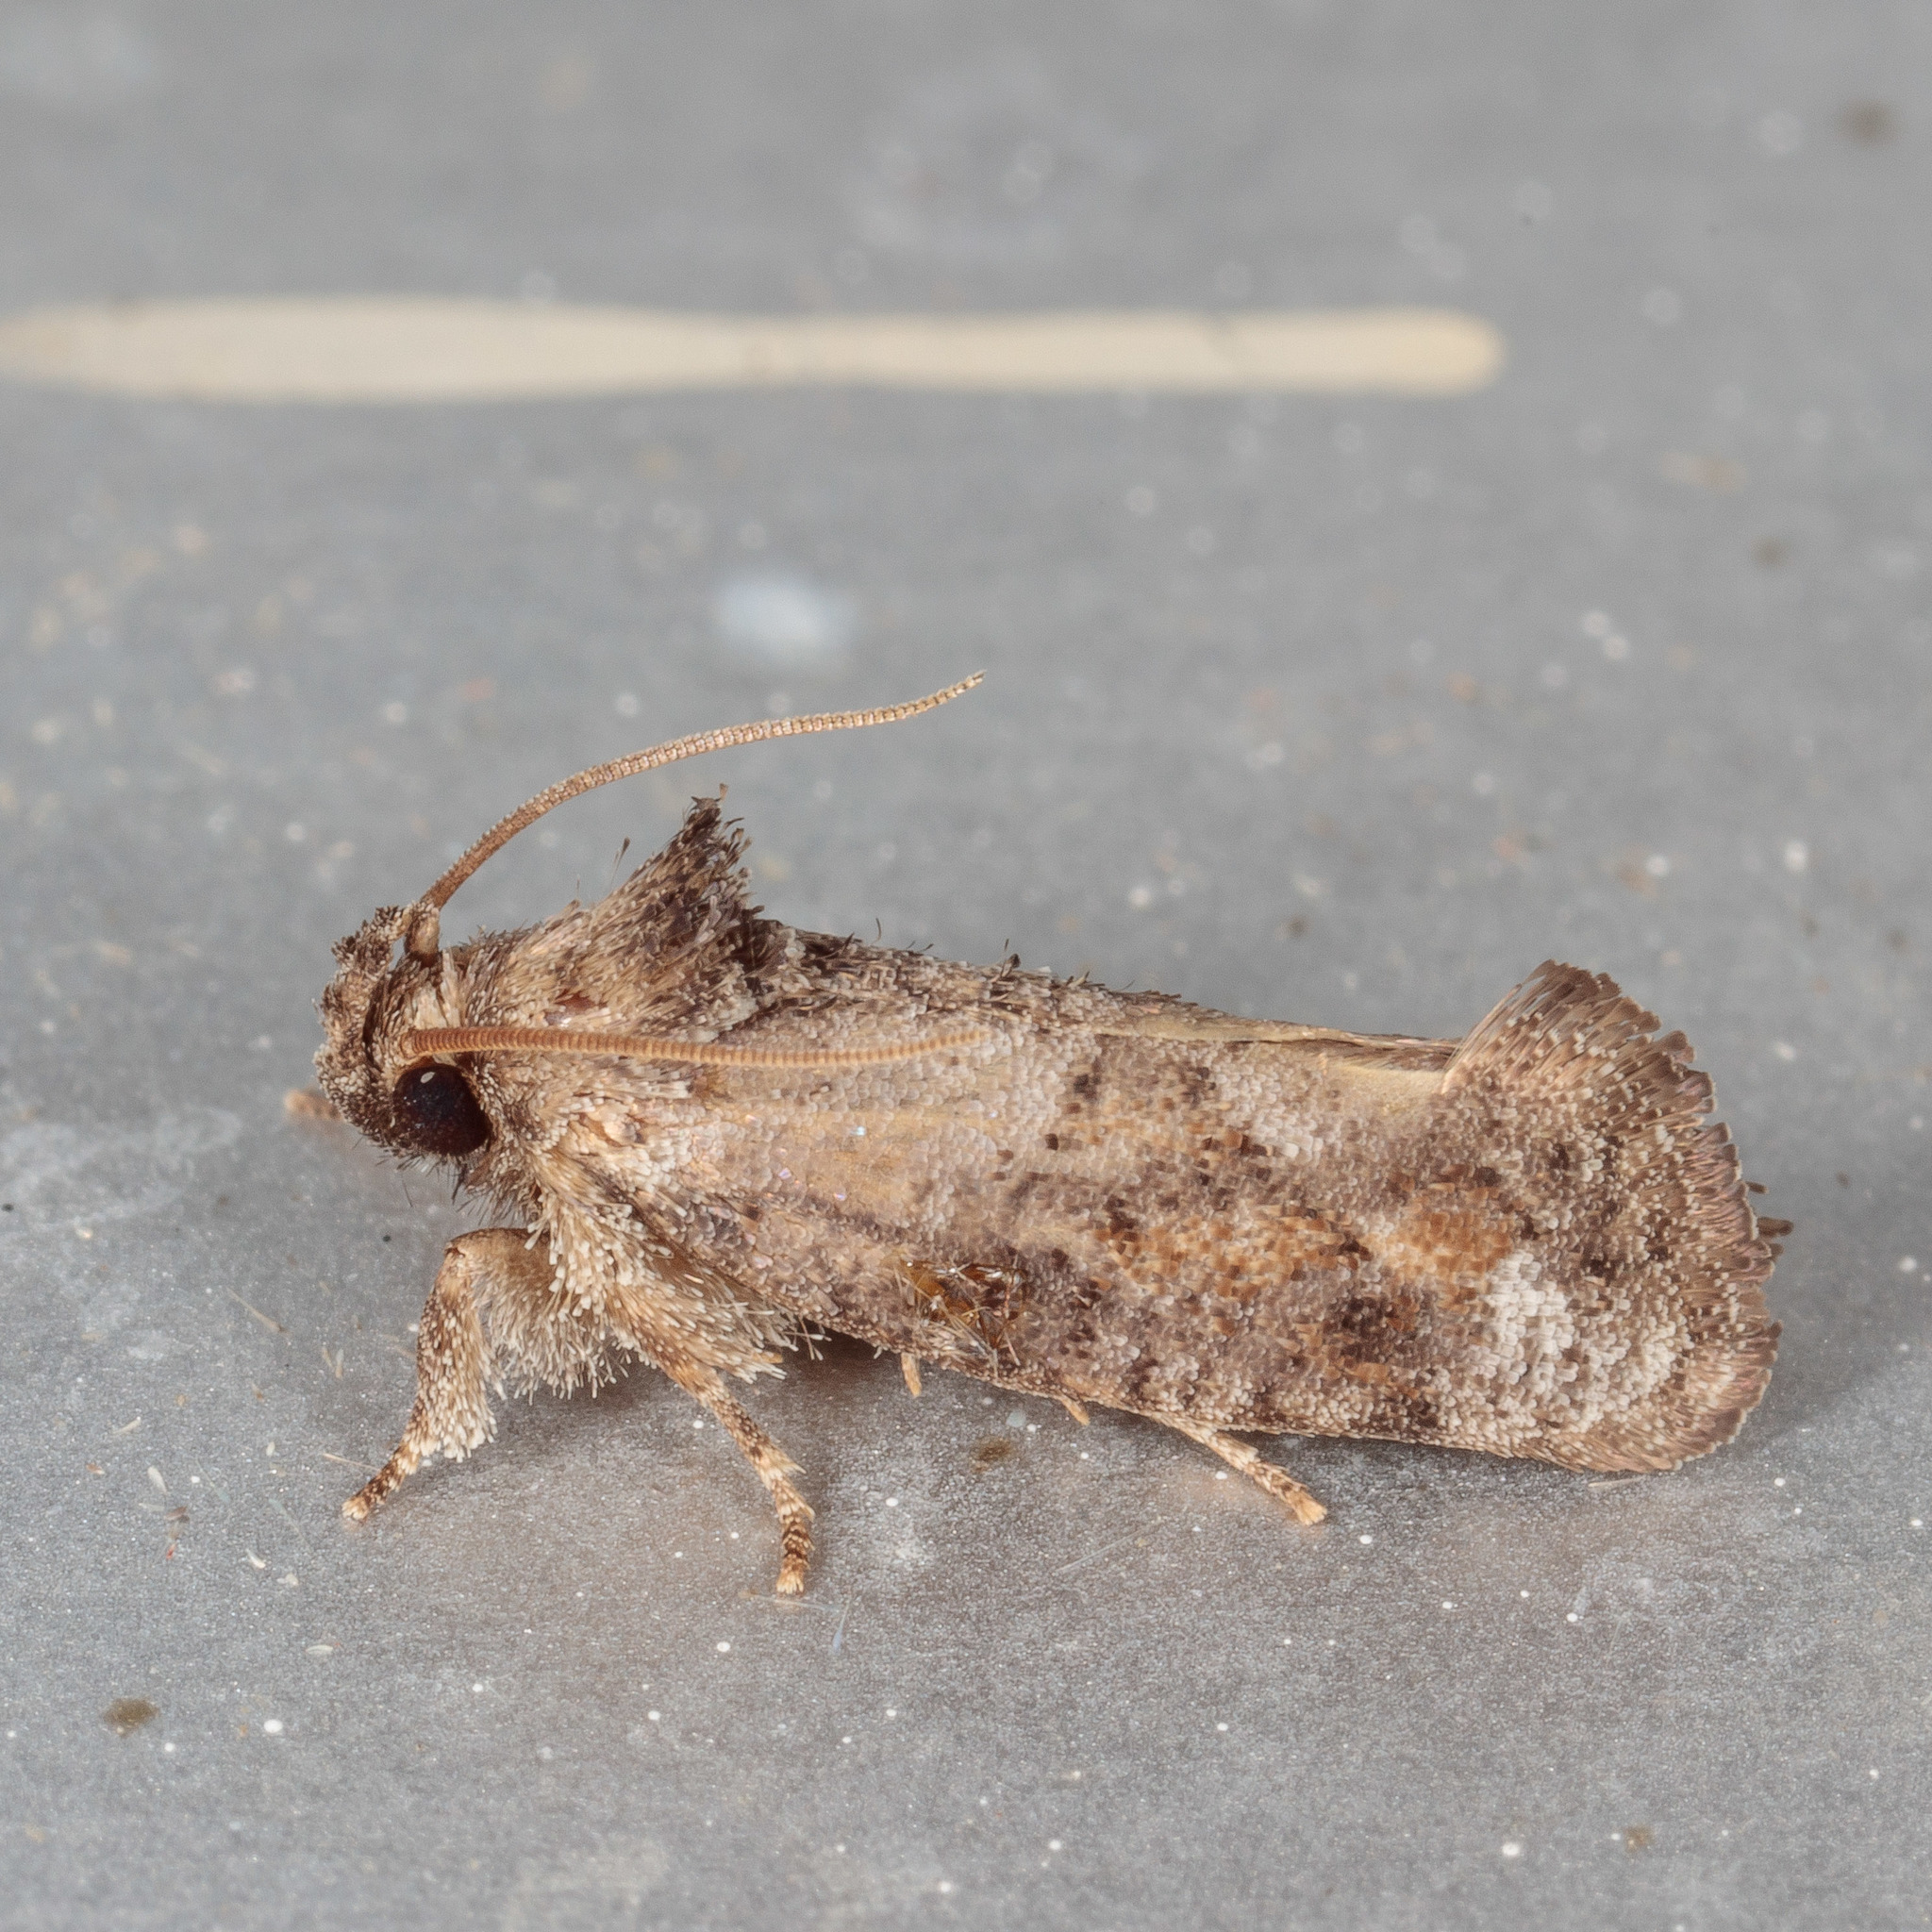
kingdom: Animalia
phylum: Arthropoda
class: Insecta
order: Lepidoptera
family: Tineidae
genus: Acrolophus
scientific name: Acrolophus piger
